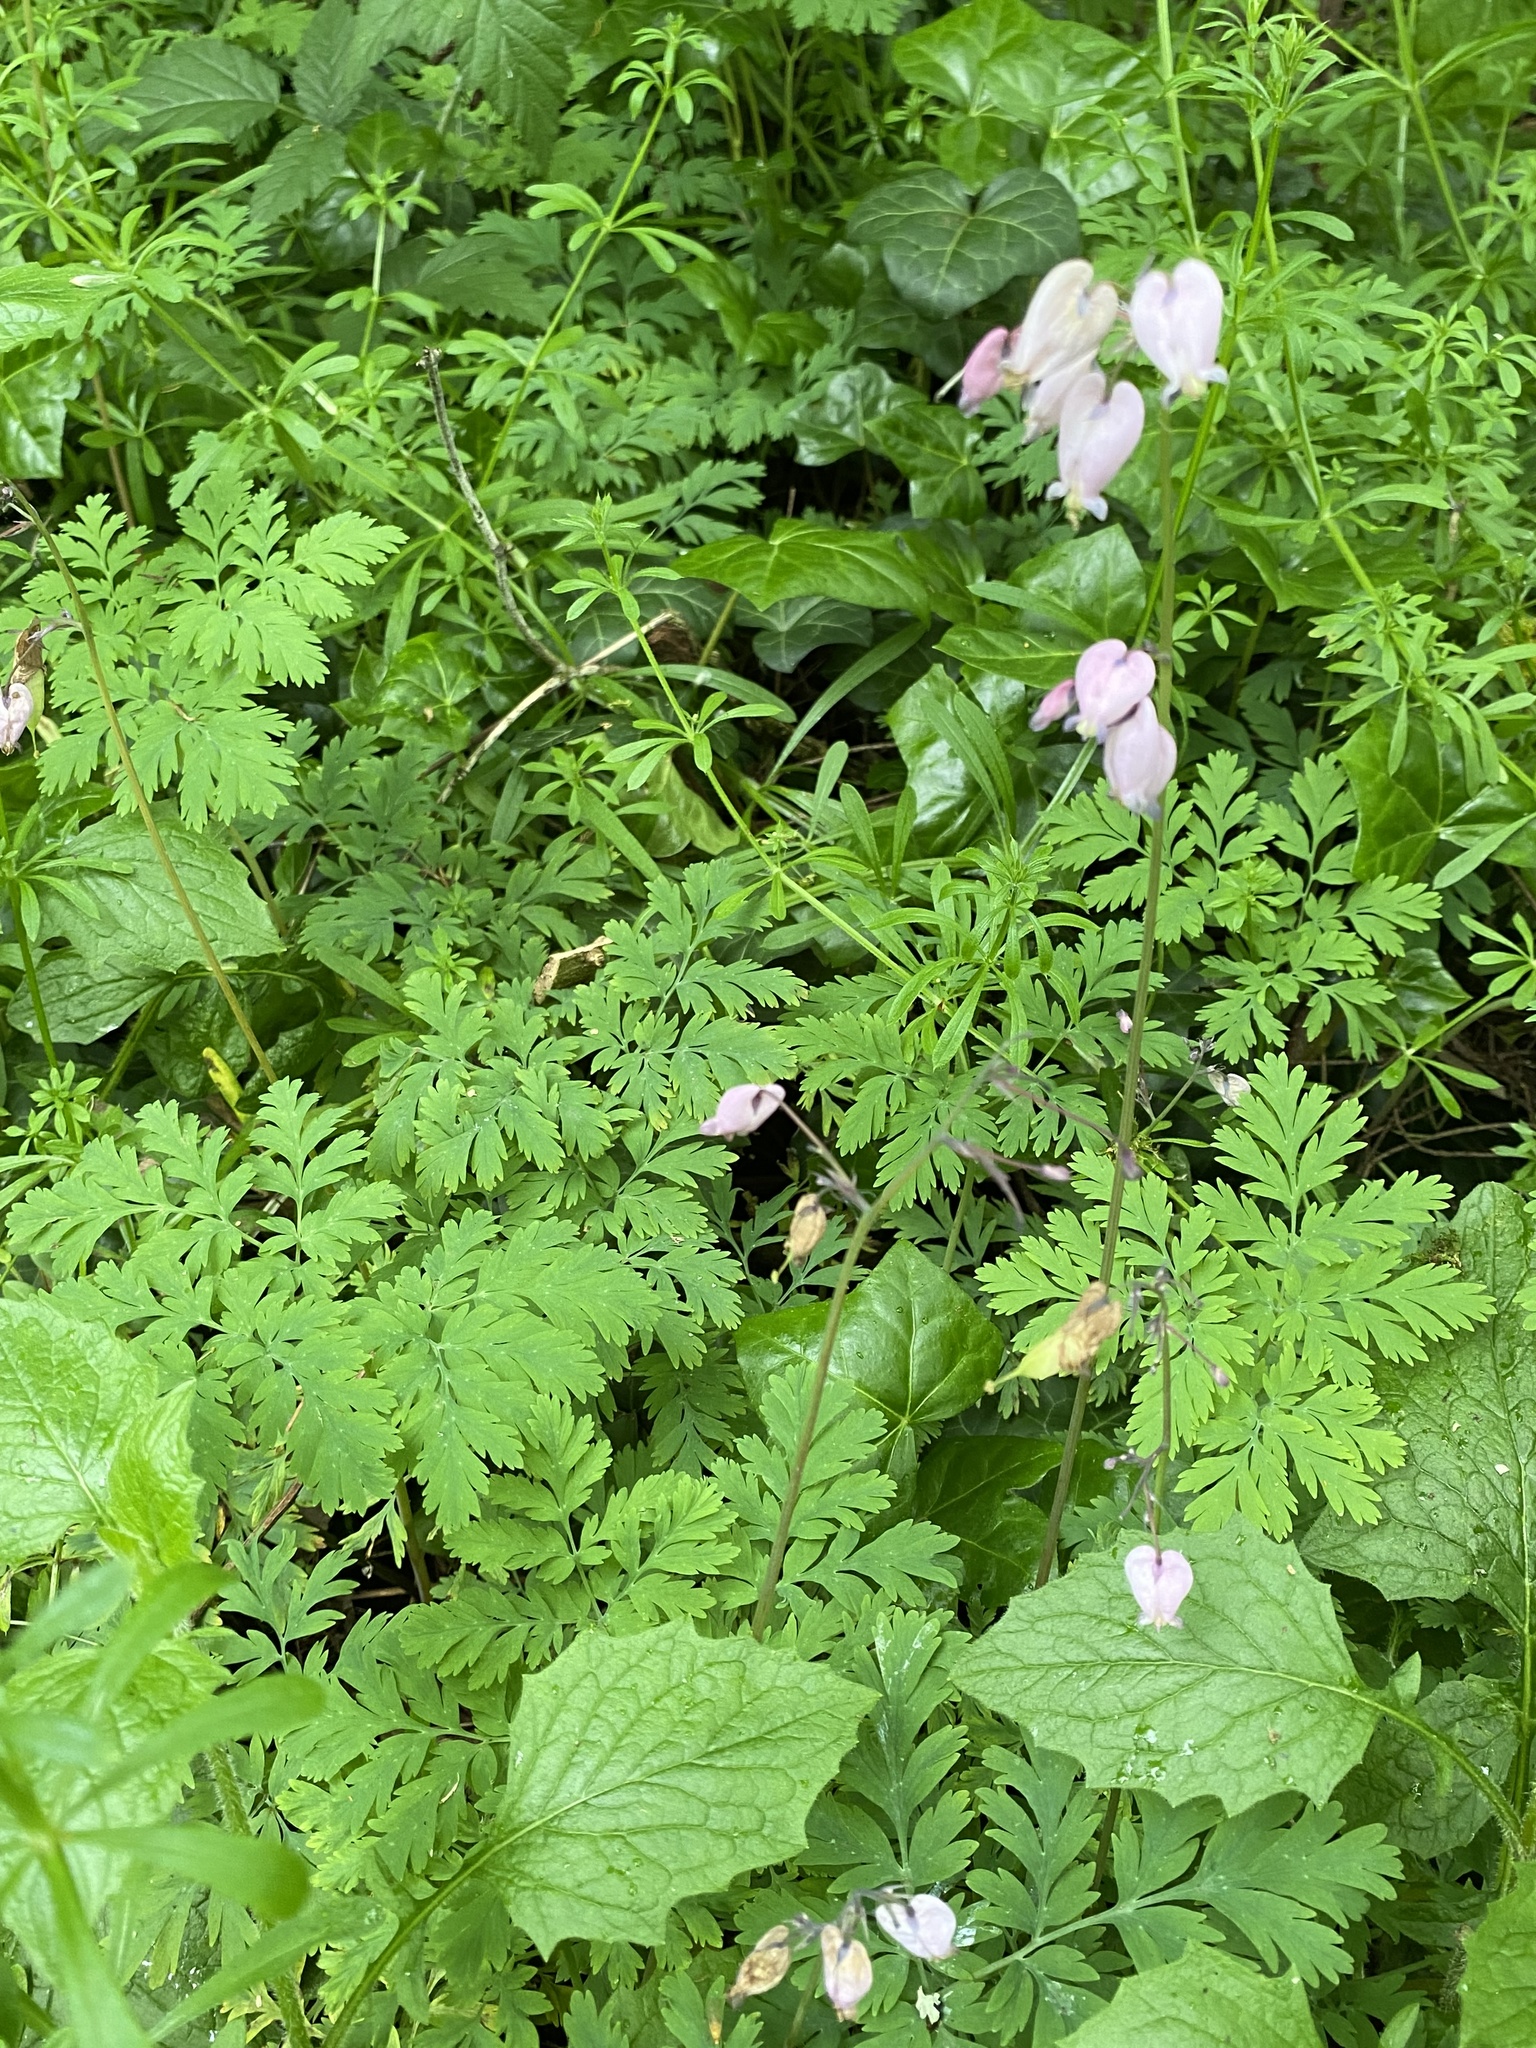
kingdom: Plantae
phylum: Tracheophyta
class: Magnoliopsida
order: Ranunculales
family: Papaveraceae
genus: Dicentra
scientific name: Dicentra formosa
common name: Bleeding-heart
